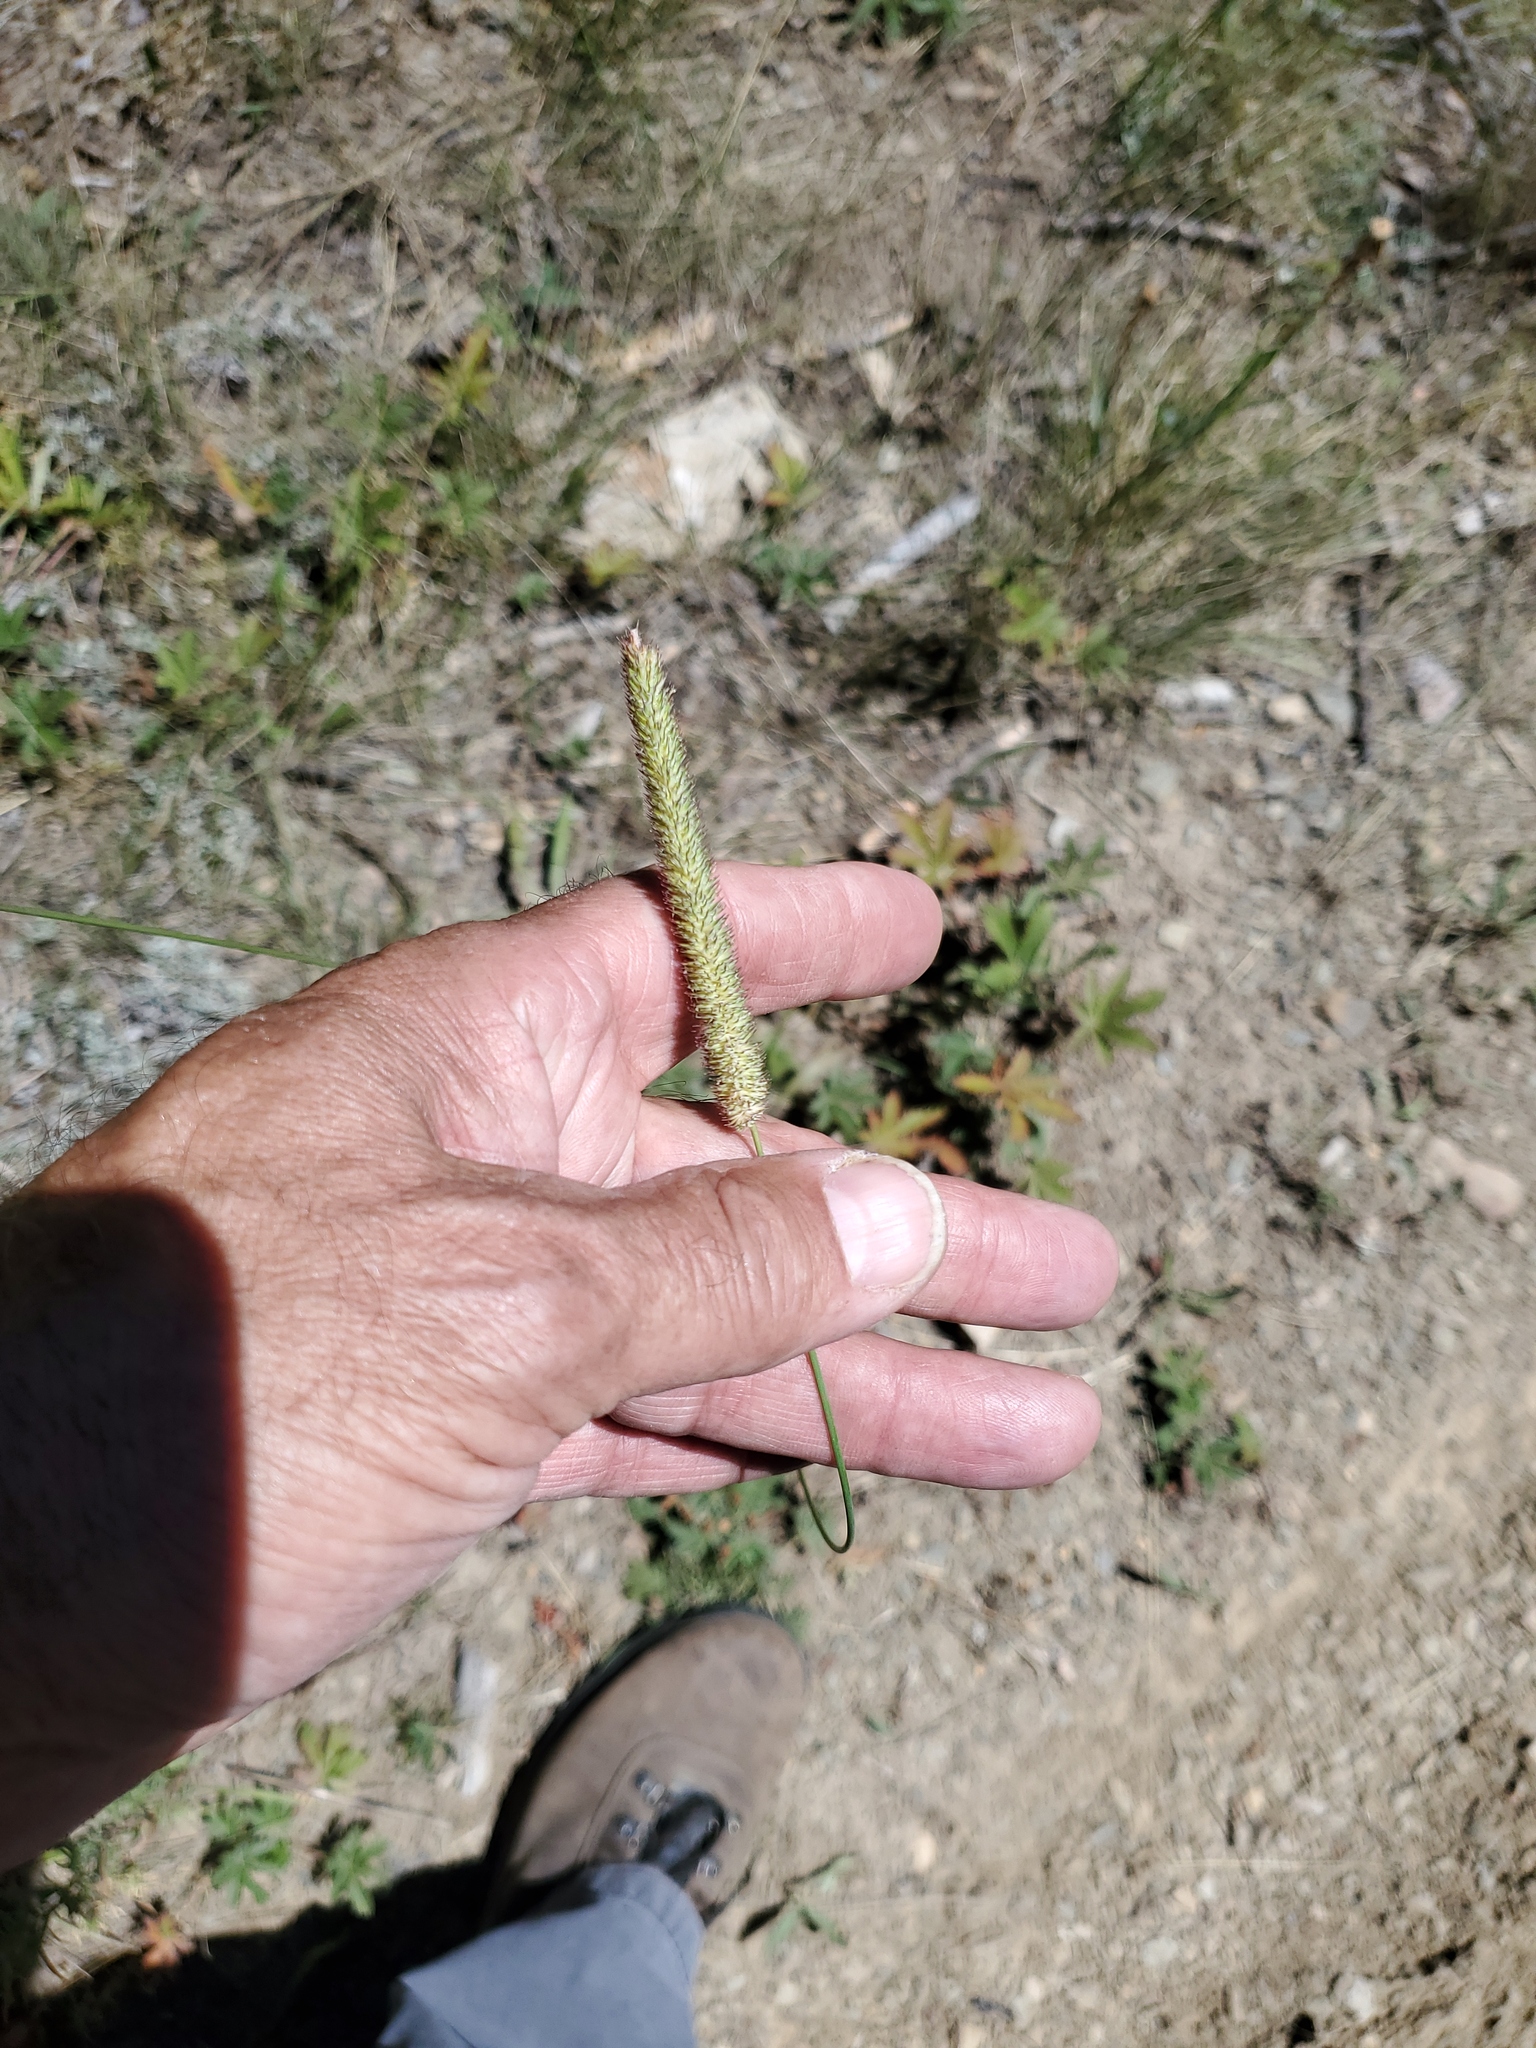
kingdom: Plantae
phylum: Tracheophyta
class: Liliopsida
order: Poales
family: Poaceae
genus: Phleum
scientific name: Phleum pratense
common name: Timothy grass
